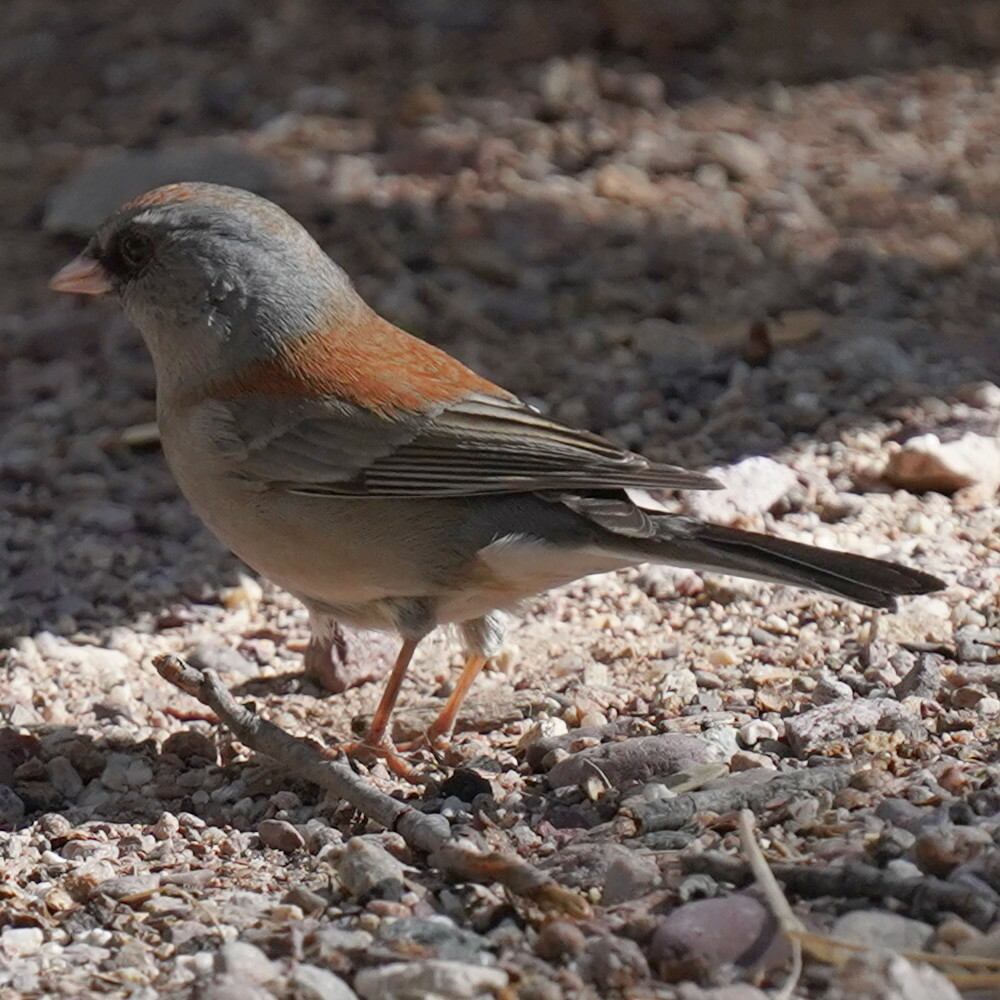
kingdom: Animalia
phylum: Chordata
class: Aves
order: Passeriformes
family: Passerellidae
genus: Junco
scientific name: Junco hyemalis
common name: Dark-eyed junco
